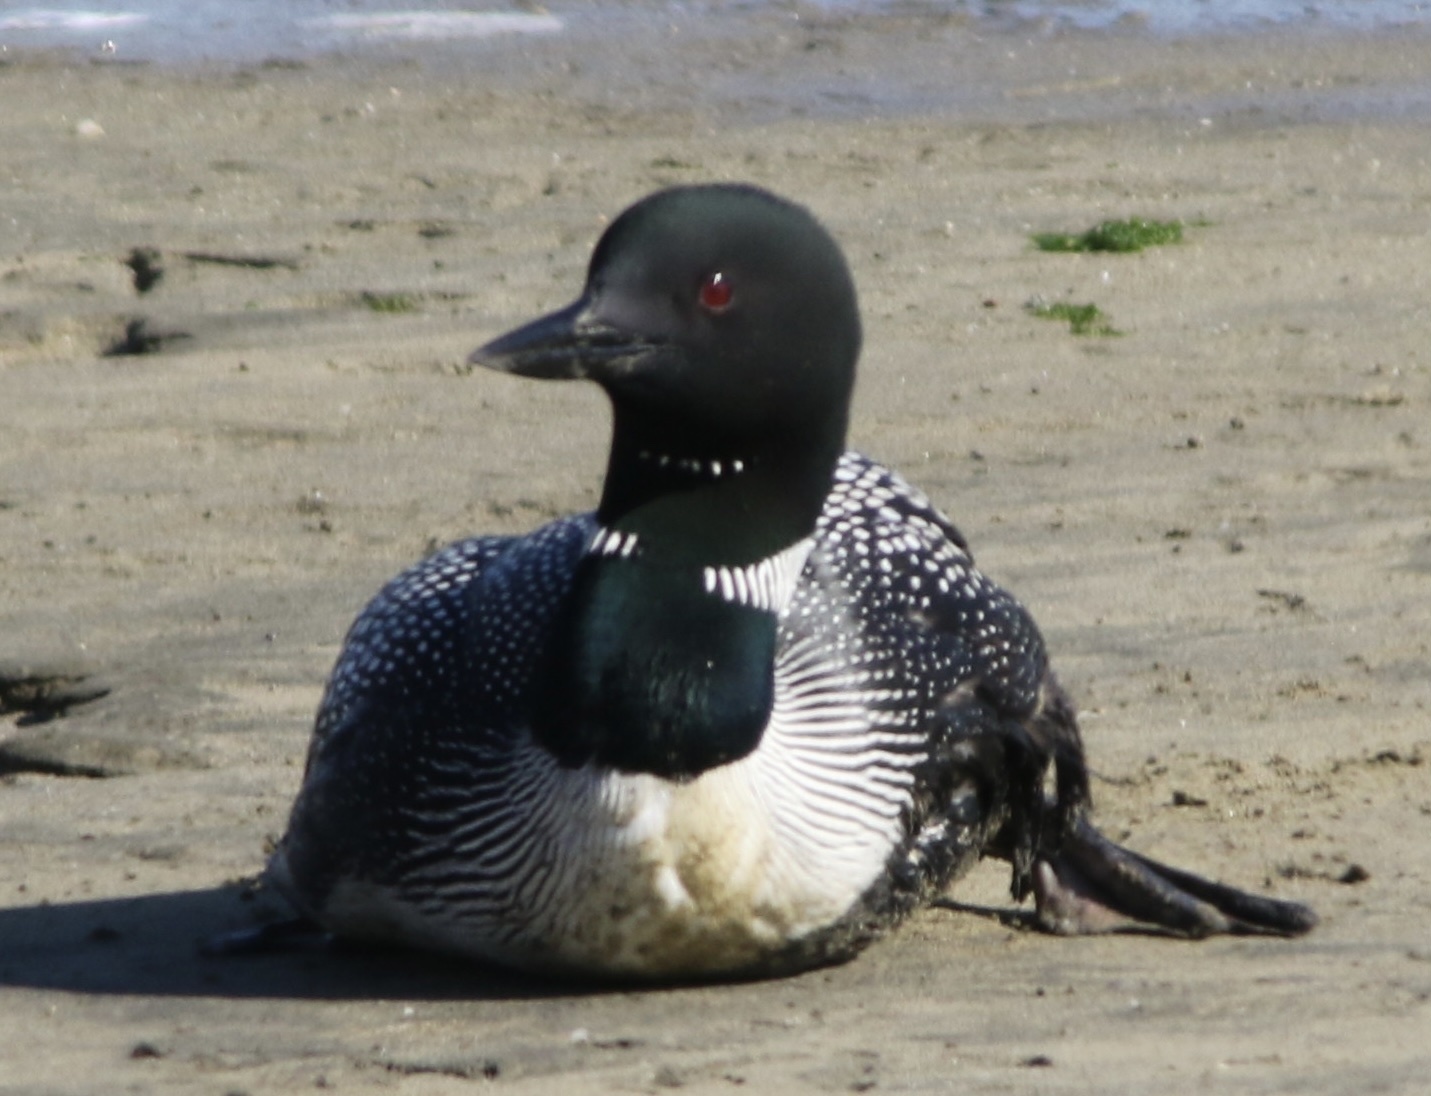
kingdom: Animalia
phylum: Chordata
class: Aves
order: Gaviiformes
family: Gaviidae
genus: Gavia
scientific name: Gavia immer
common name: Common loon
